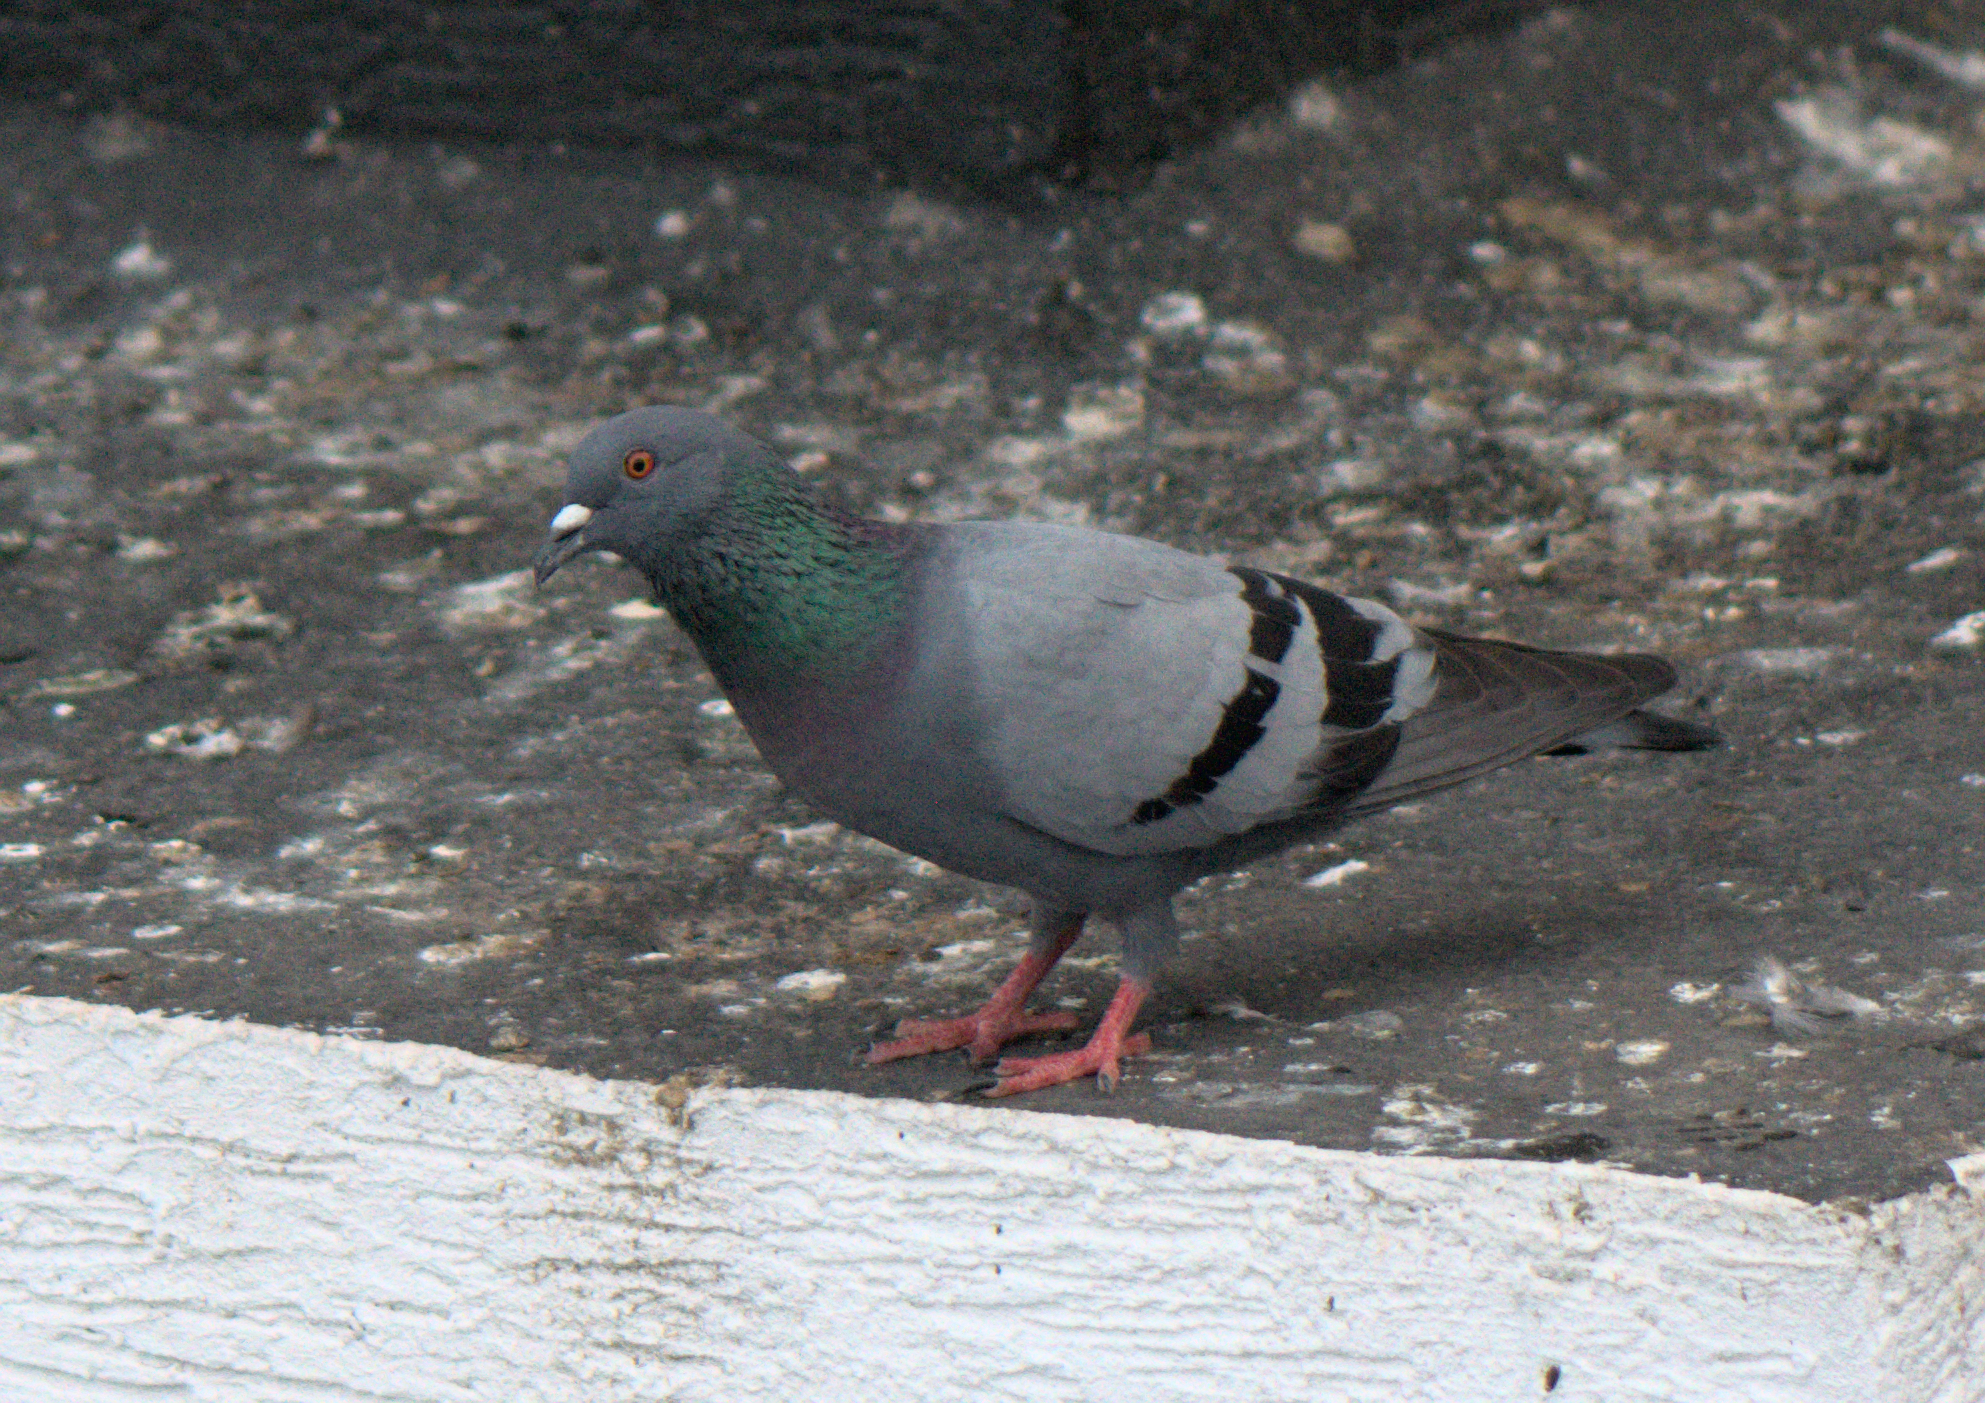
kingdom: Animalia
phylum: Chordata
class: Aves
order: Columbiformes
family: Columbidae
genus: Columba
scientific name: Columba livia
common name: Rock pigeon
